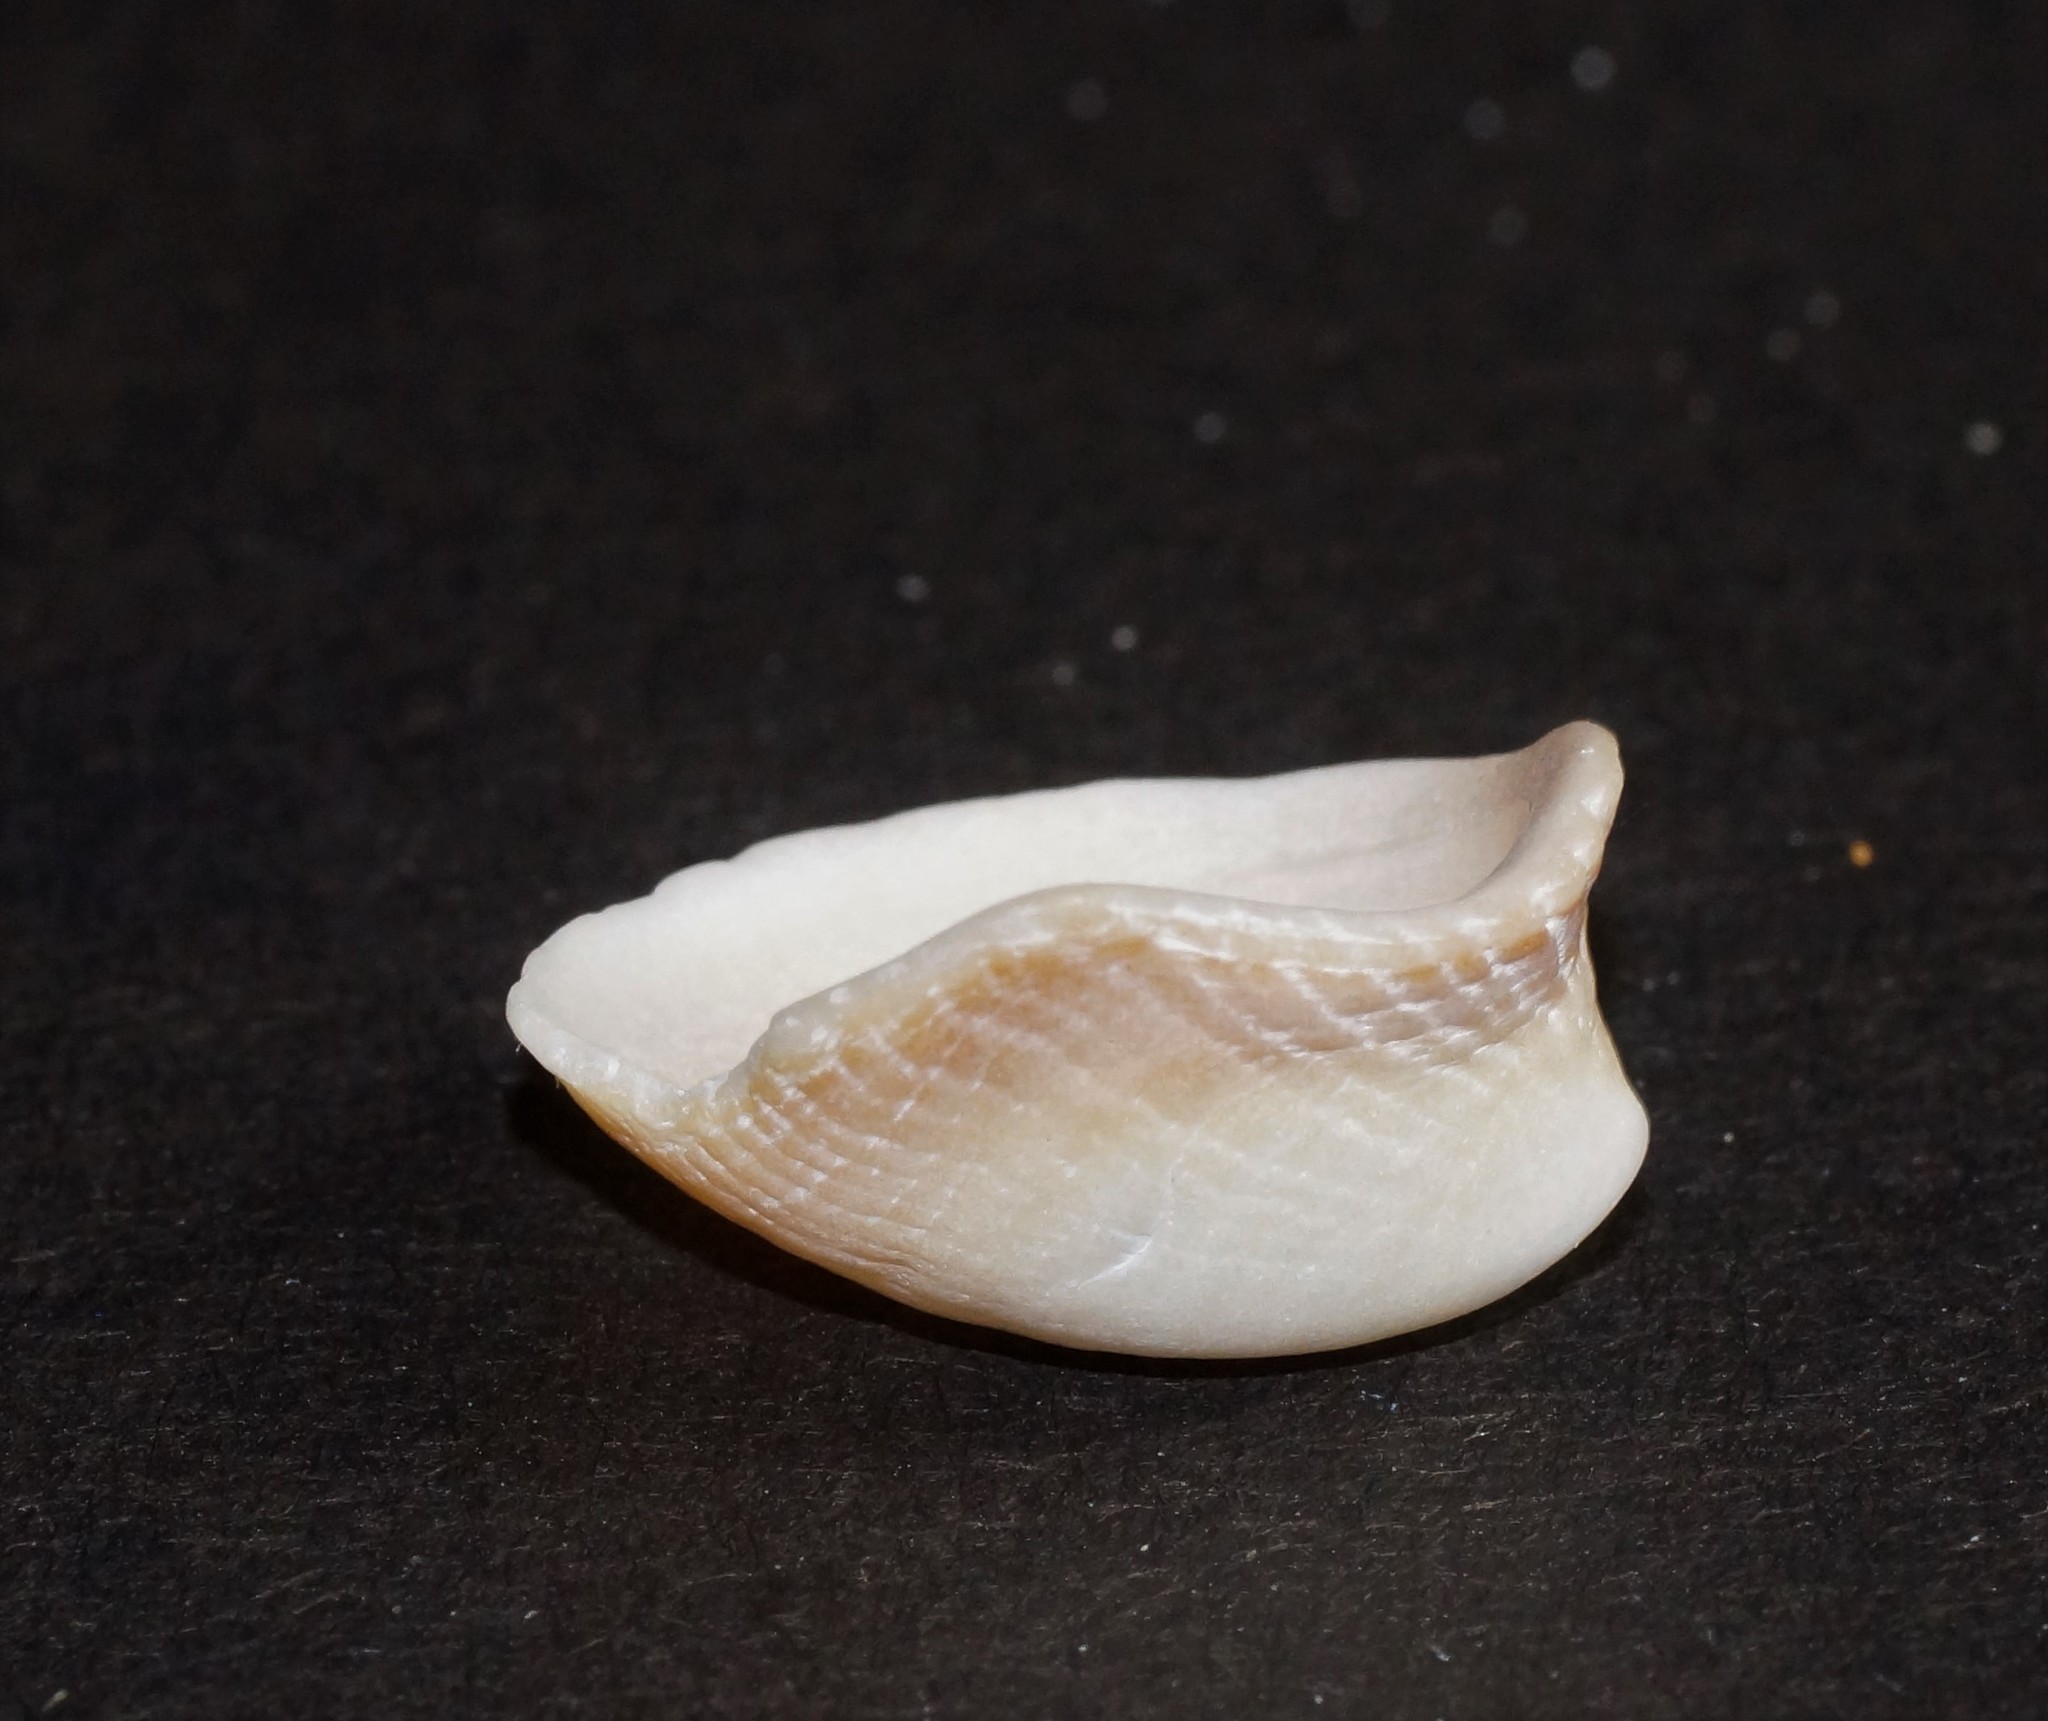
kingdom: Animalia
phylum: Mollusca
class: Gastropoda
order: Littorinimorpha
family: Hipponicidae
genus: Sabia
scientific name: Sabia australis
